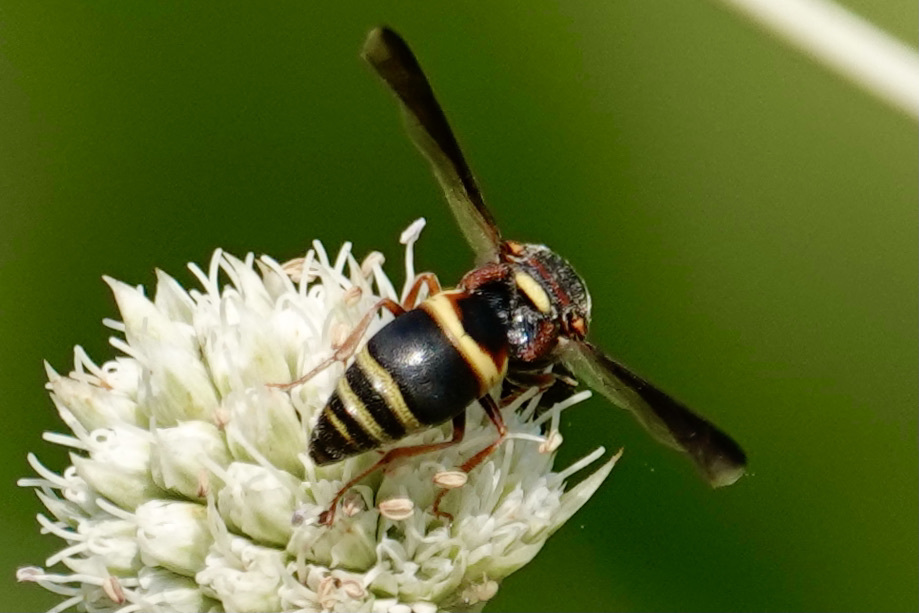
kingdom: Animalia
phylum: Arthropoda
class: Insecta
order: Hymenoptera
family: Eumenidae
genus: Euodynerus
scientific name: Euodynerus hidalgo
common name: Wasp
